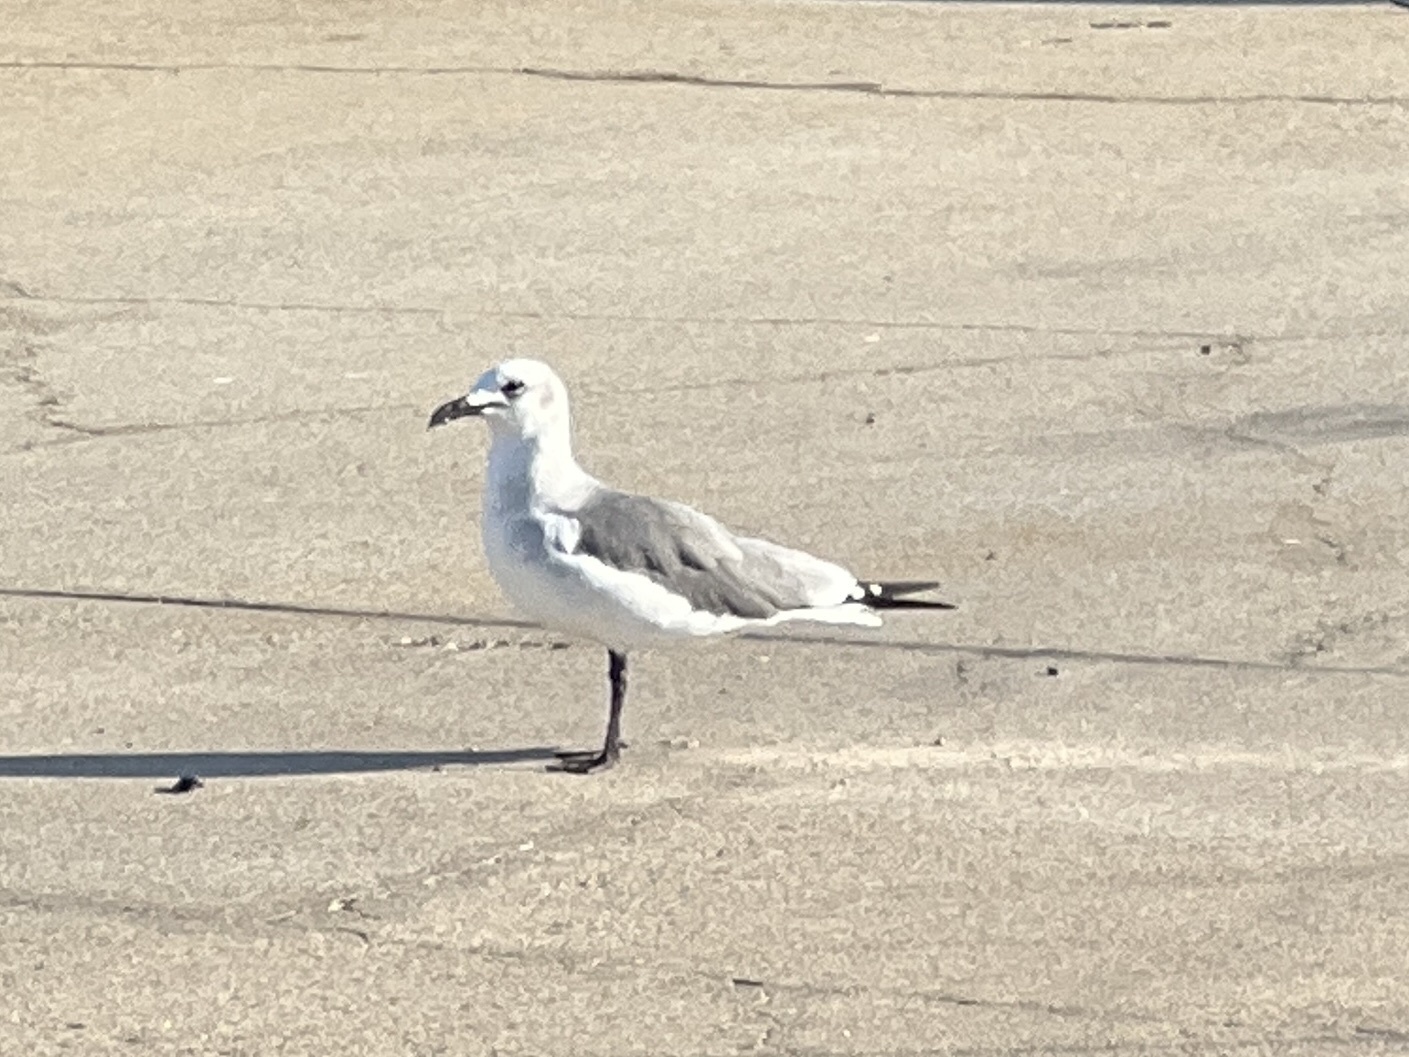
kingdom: Animalia
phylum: Chordata
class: Aves
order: Charadriiformes
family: Laridae
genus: Leucophaeus
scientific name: Leucophaeus atricilla
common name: Laughing gull
